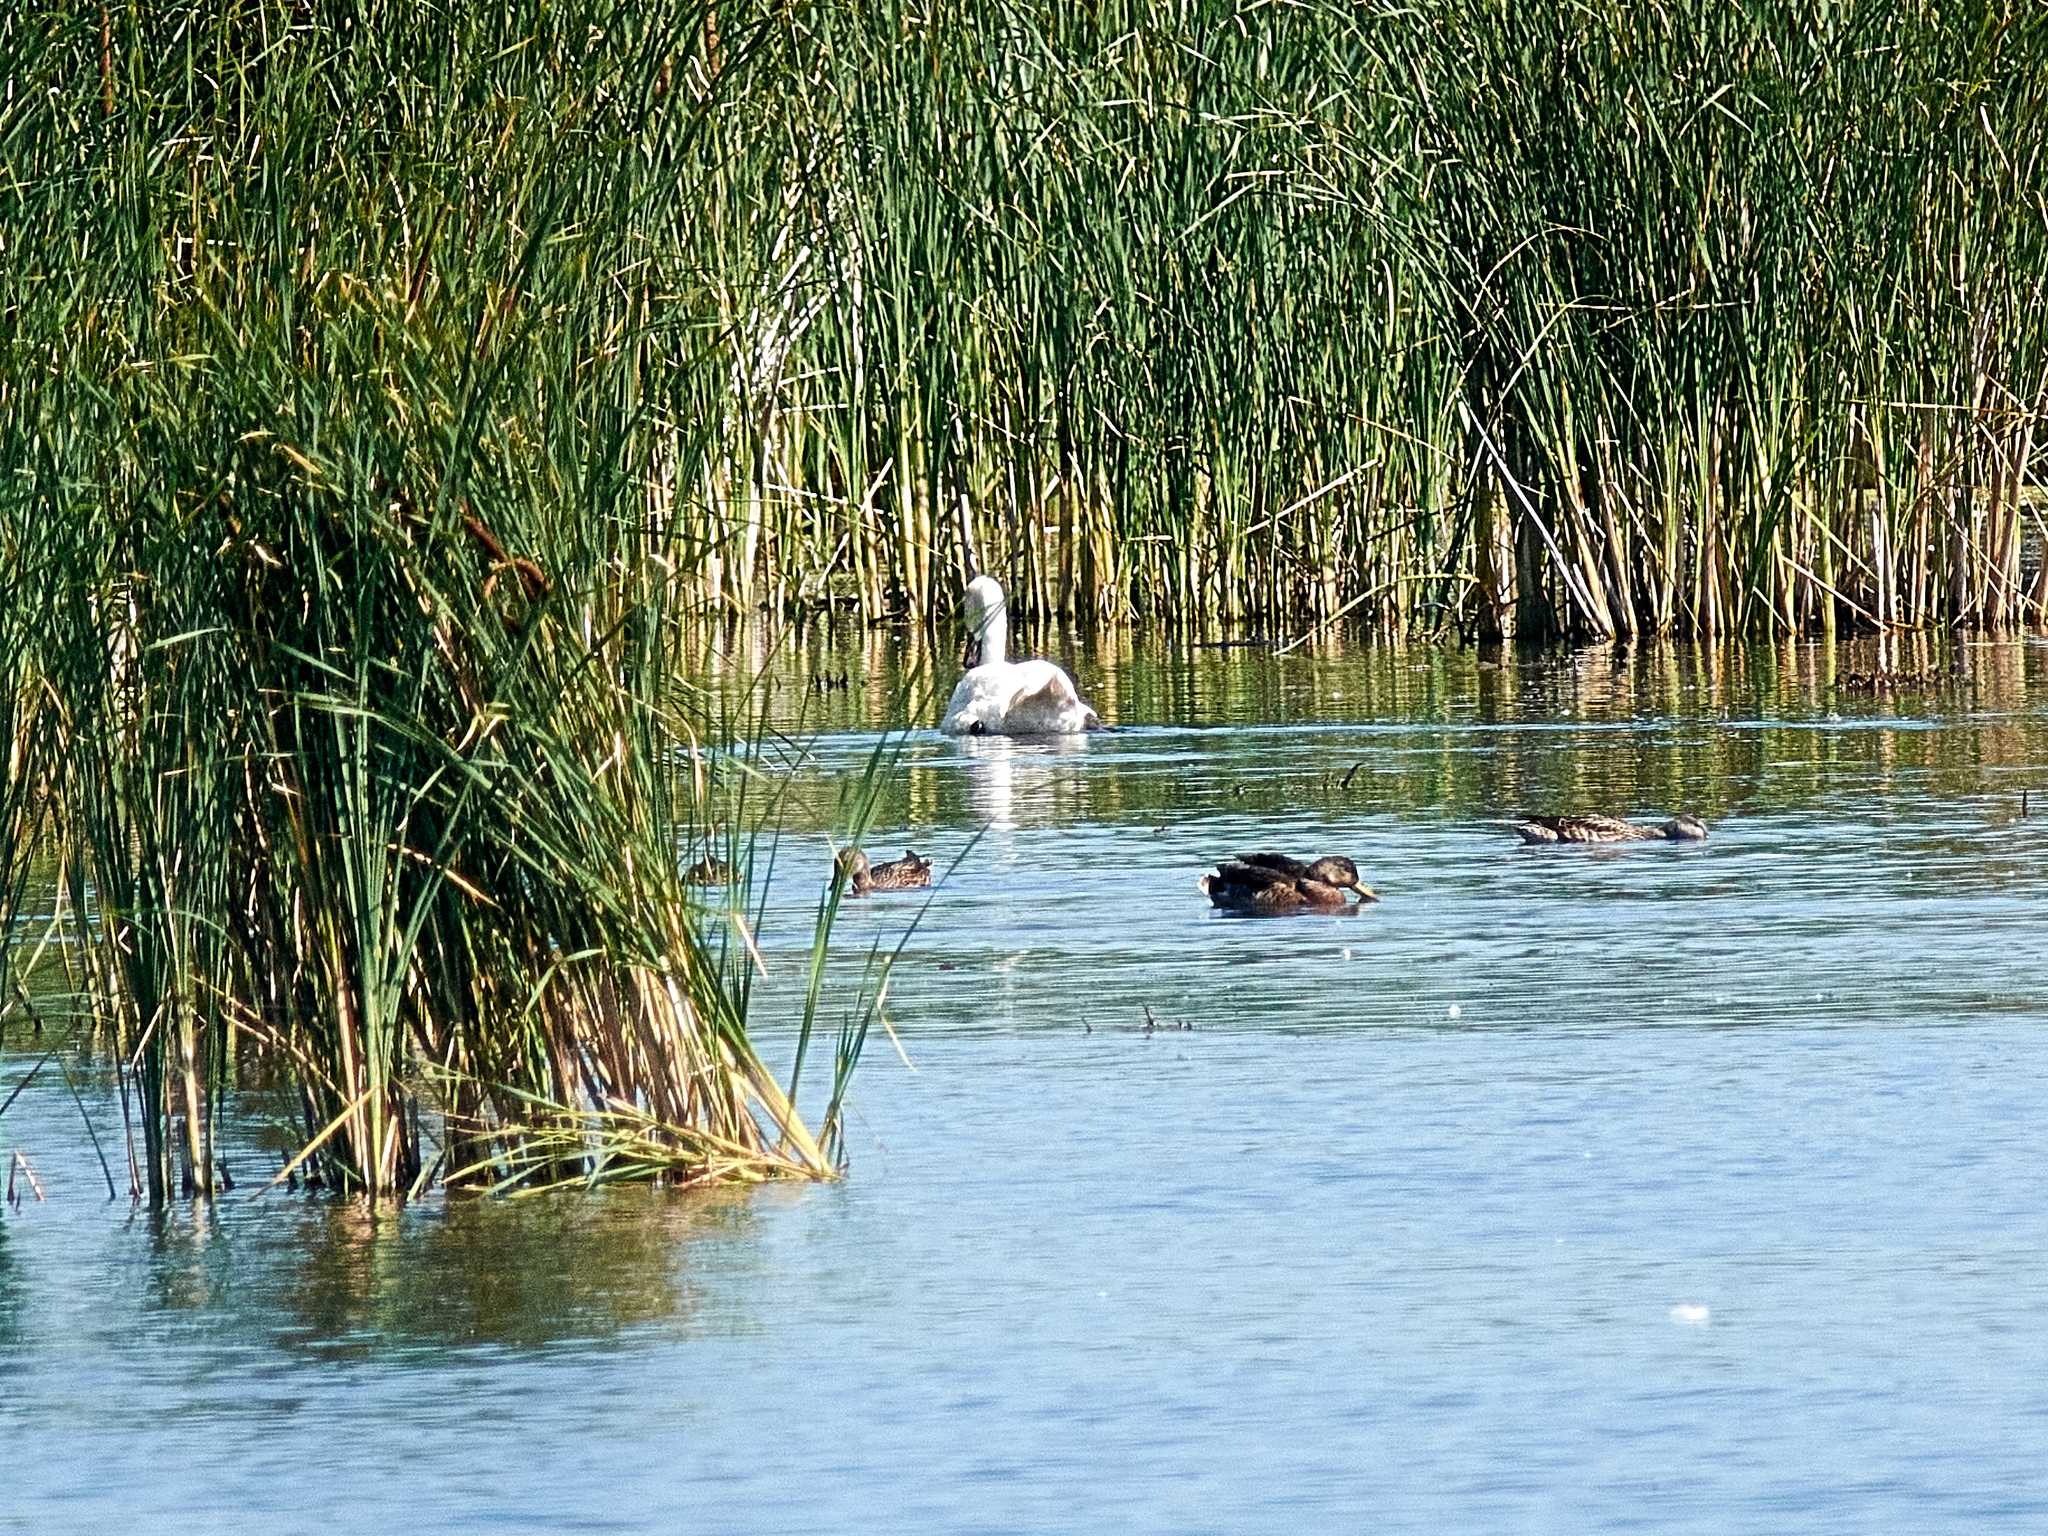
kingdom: Animalia
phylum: Chordata
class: Aves
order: Anseriformes
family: Anatidae
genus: Cygnus
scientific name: Cygnus olor
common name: Mute swan
